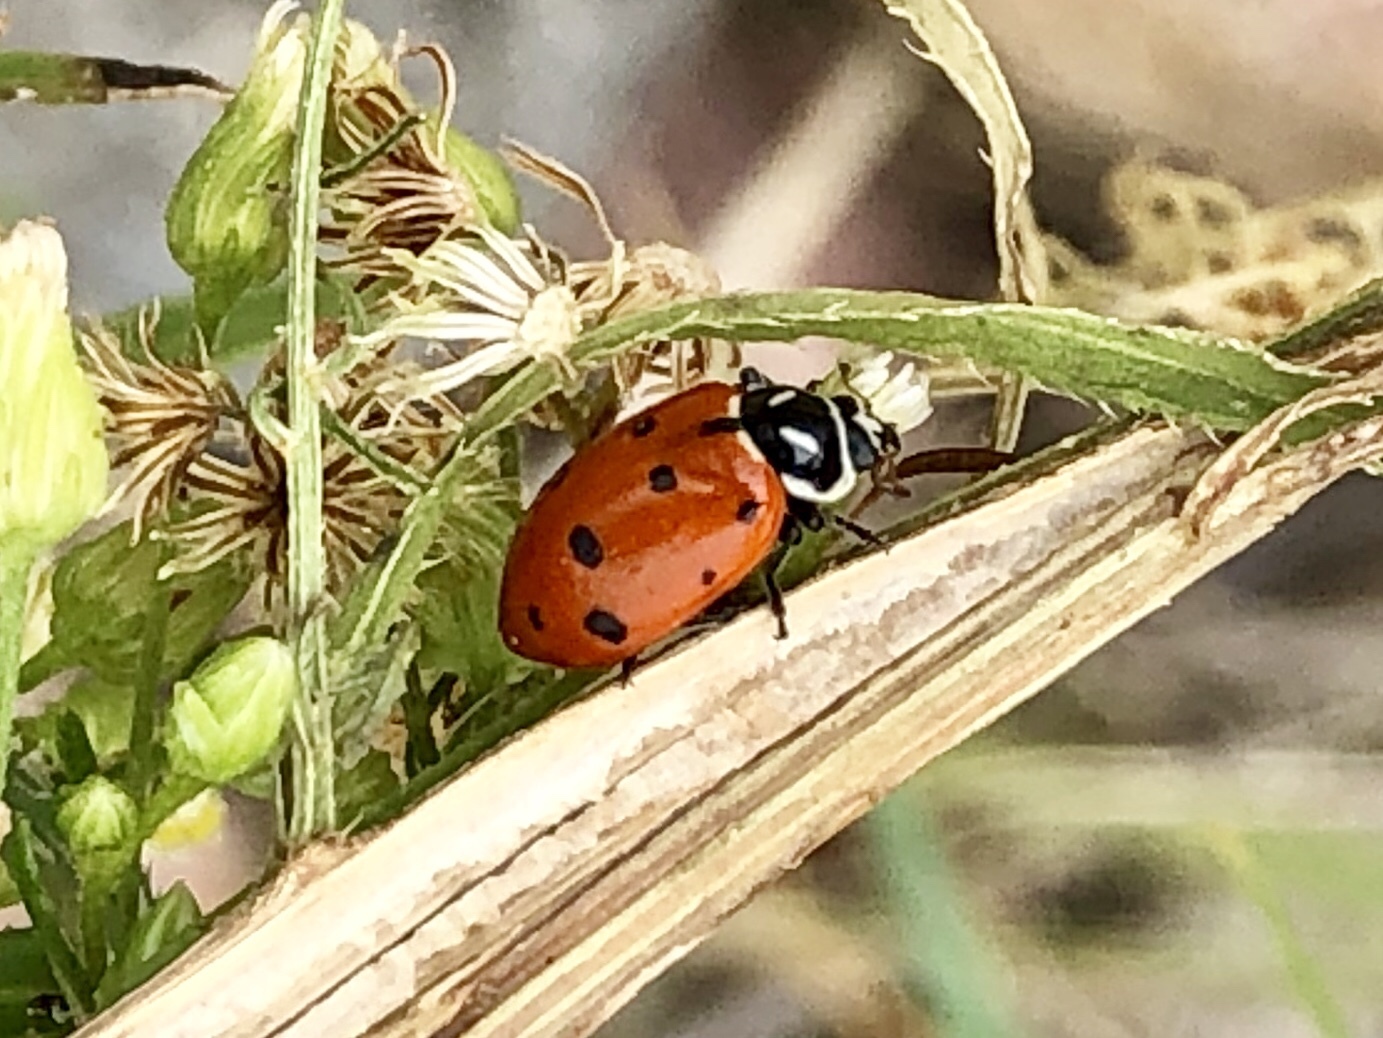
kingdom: Animalia
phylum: Arthropoda
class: Insecta
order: Coleoptera
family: Coccinellidae
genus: Hippodamia
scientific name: Hippodamia convergens
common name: Convergent lady beetle
